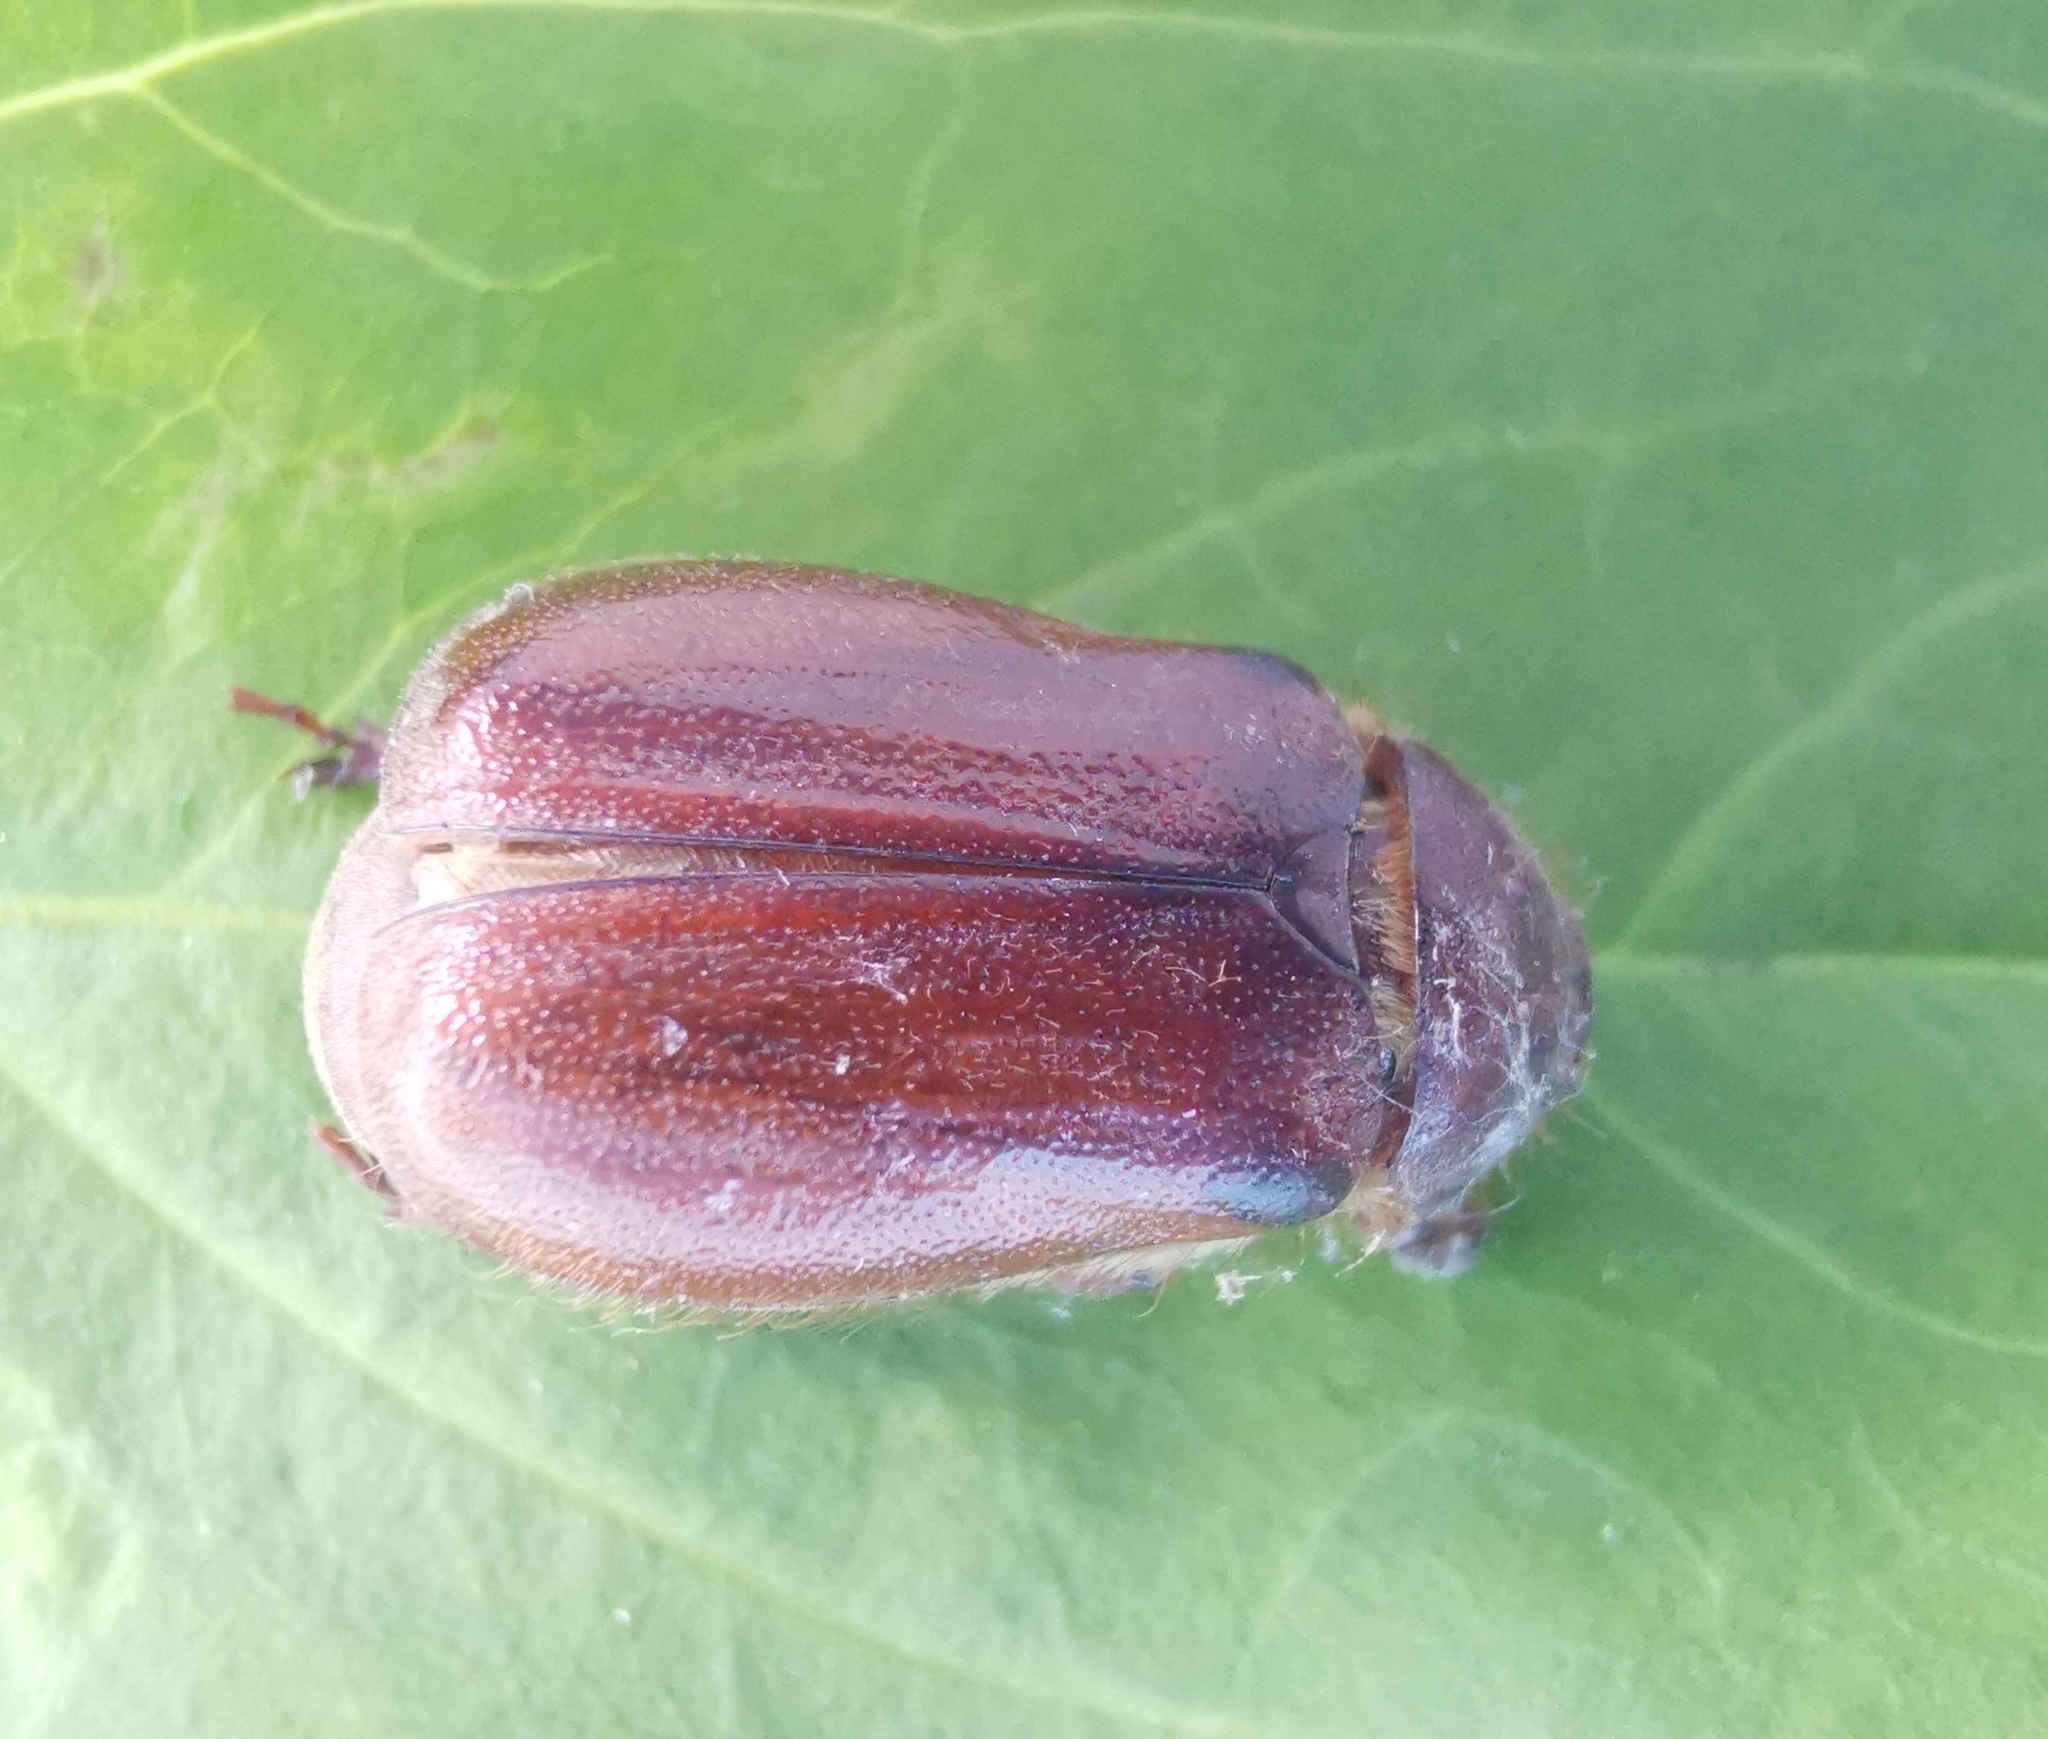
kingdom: Animalia
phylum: Arthropoda
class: Insecta
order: Coleoptera
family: Scarabaeidae
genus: Holochelus
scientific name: Holochelus aequinoctialis
